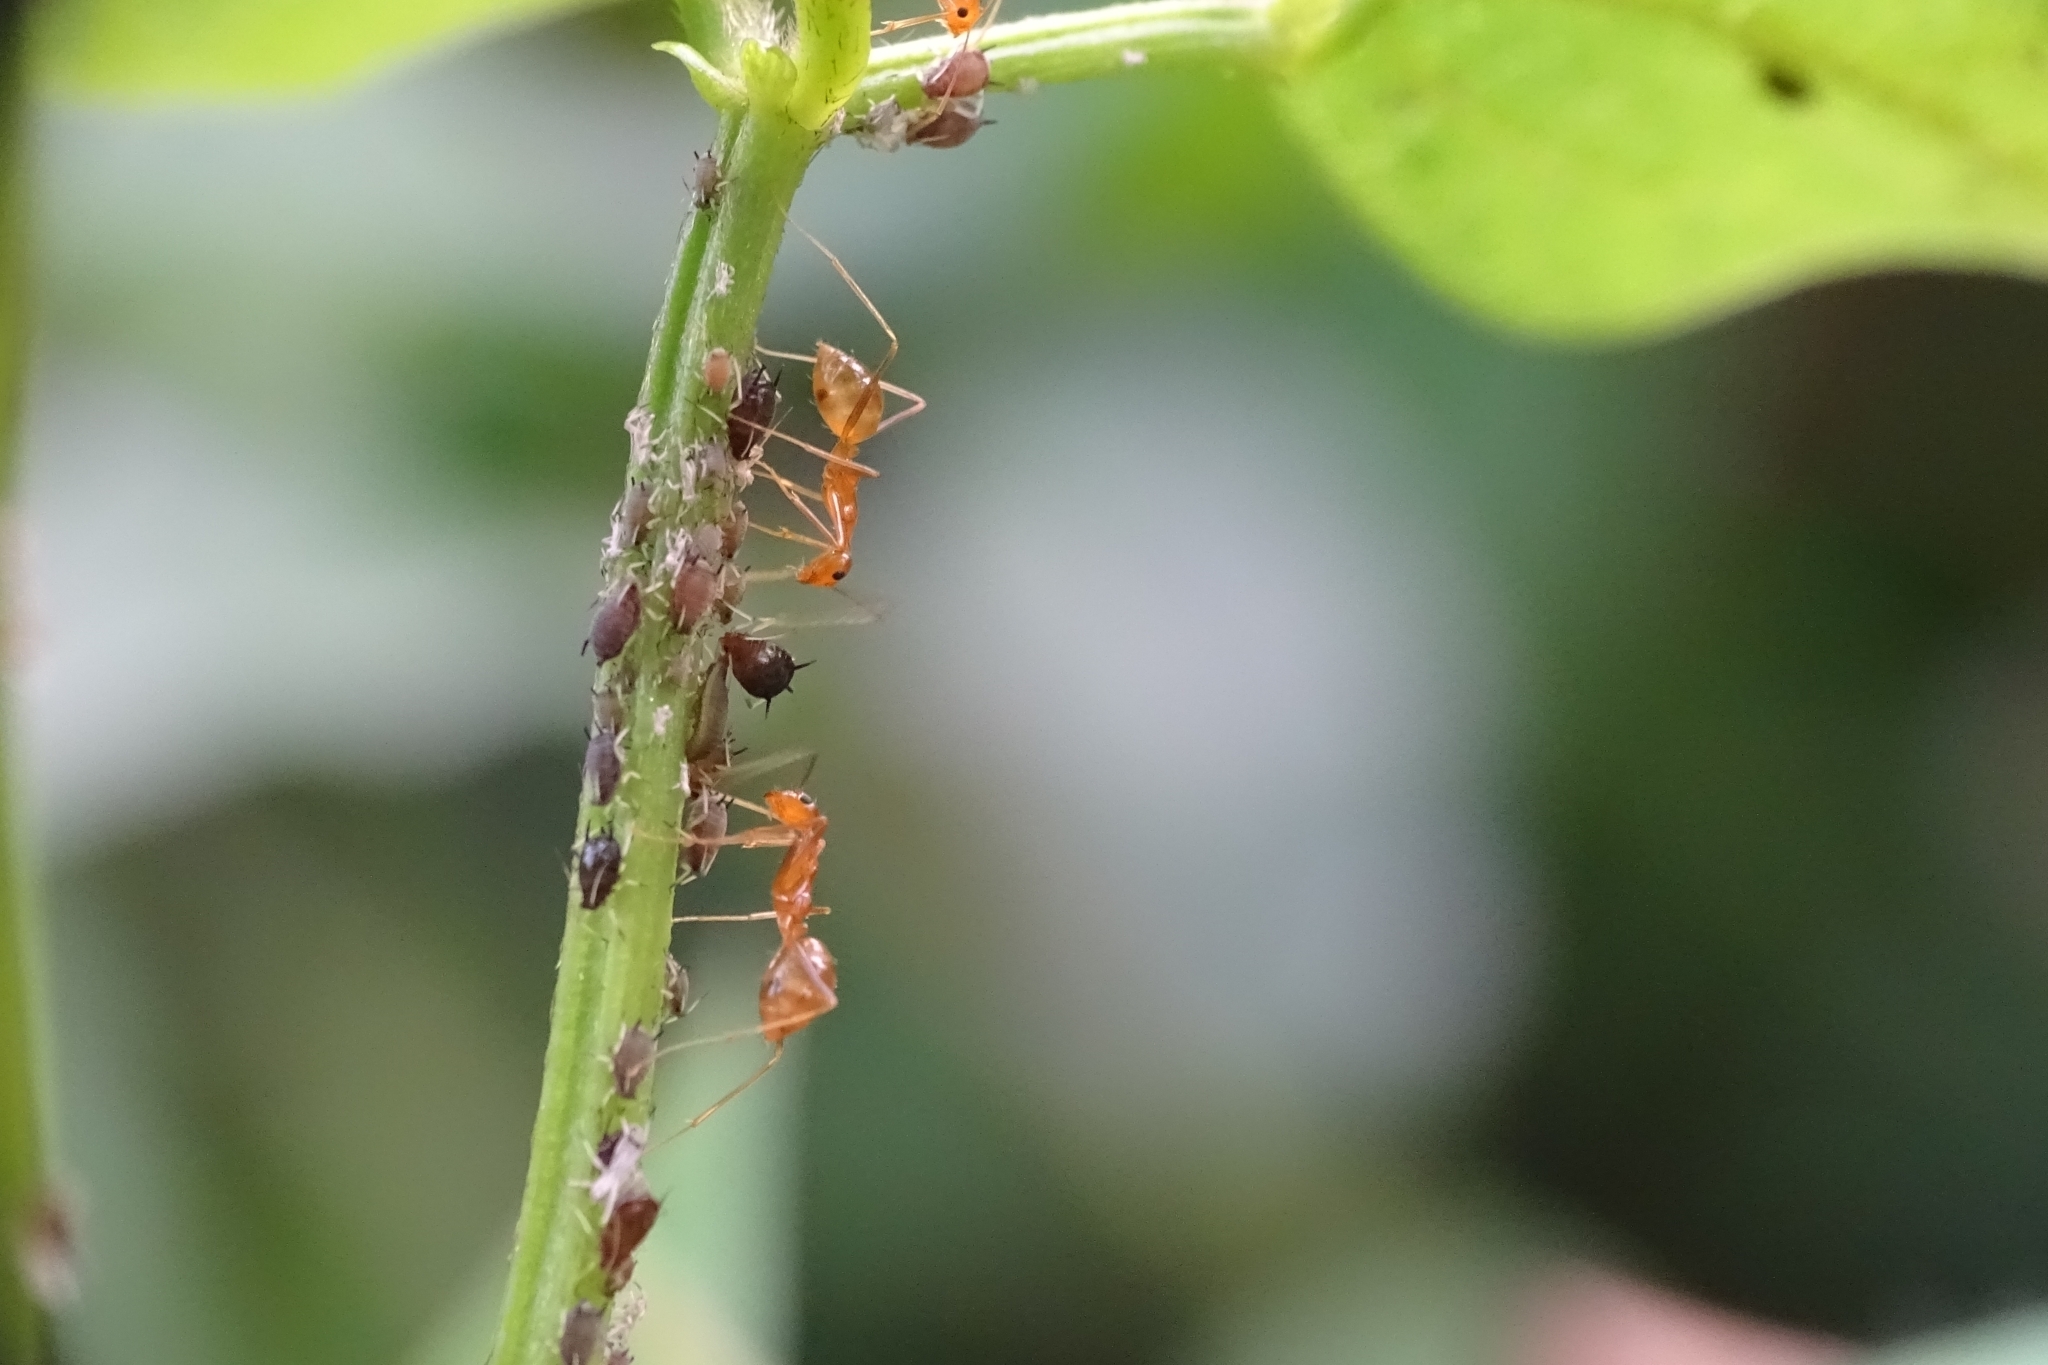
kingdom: Animalia
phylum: Arthropoda
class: Insecta
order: Hymenoptera
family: Formicidae
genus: Anoplolepis
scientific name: Anoplolepis gracilipes
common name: Ant
